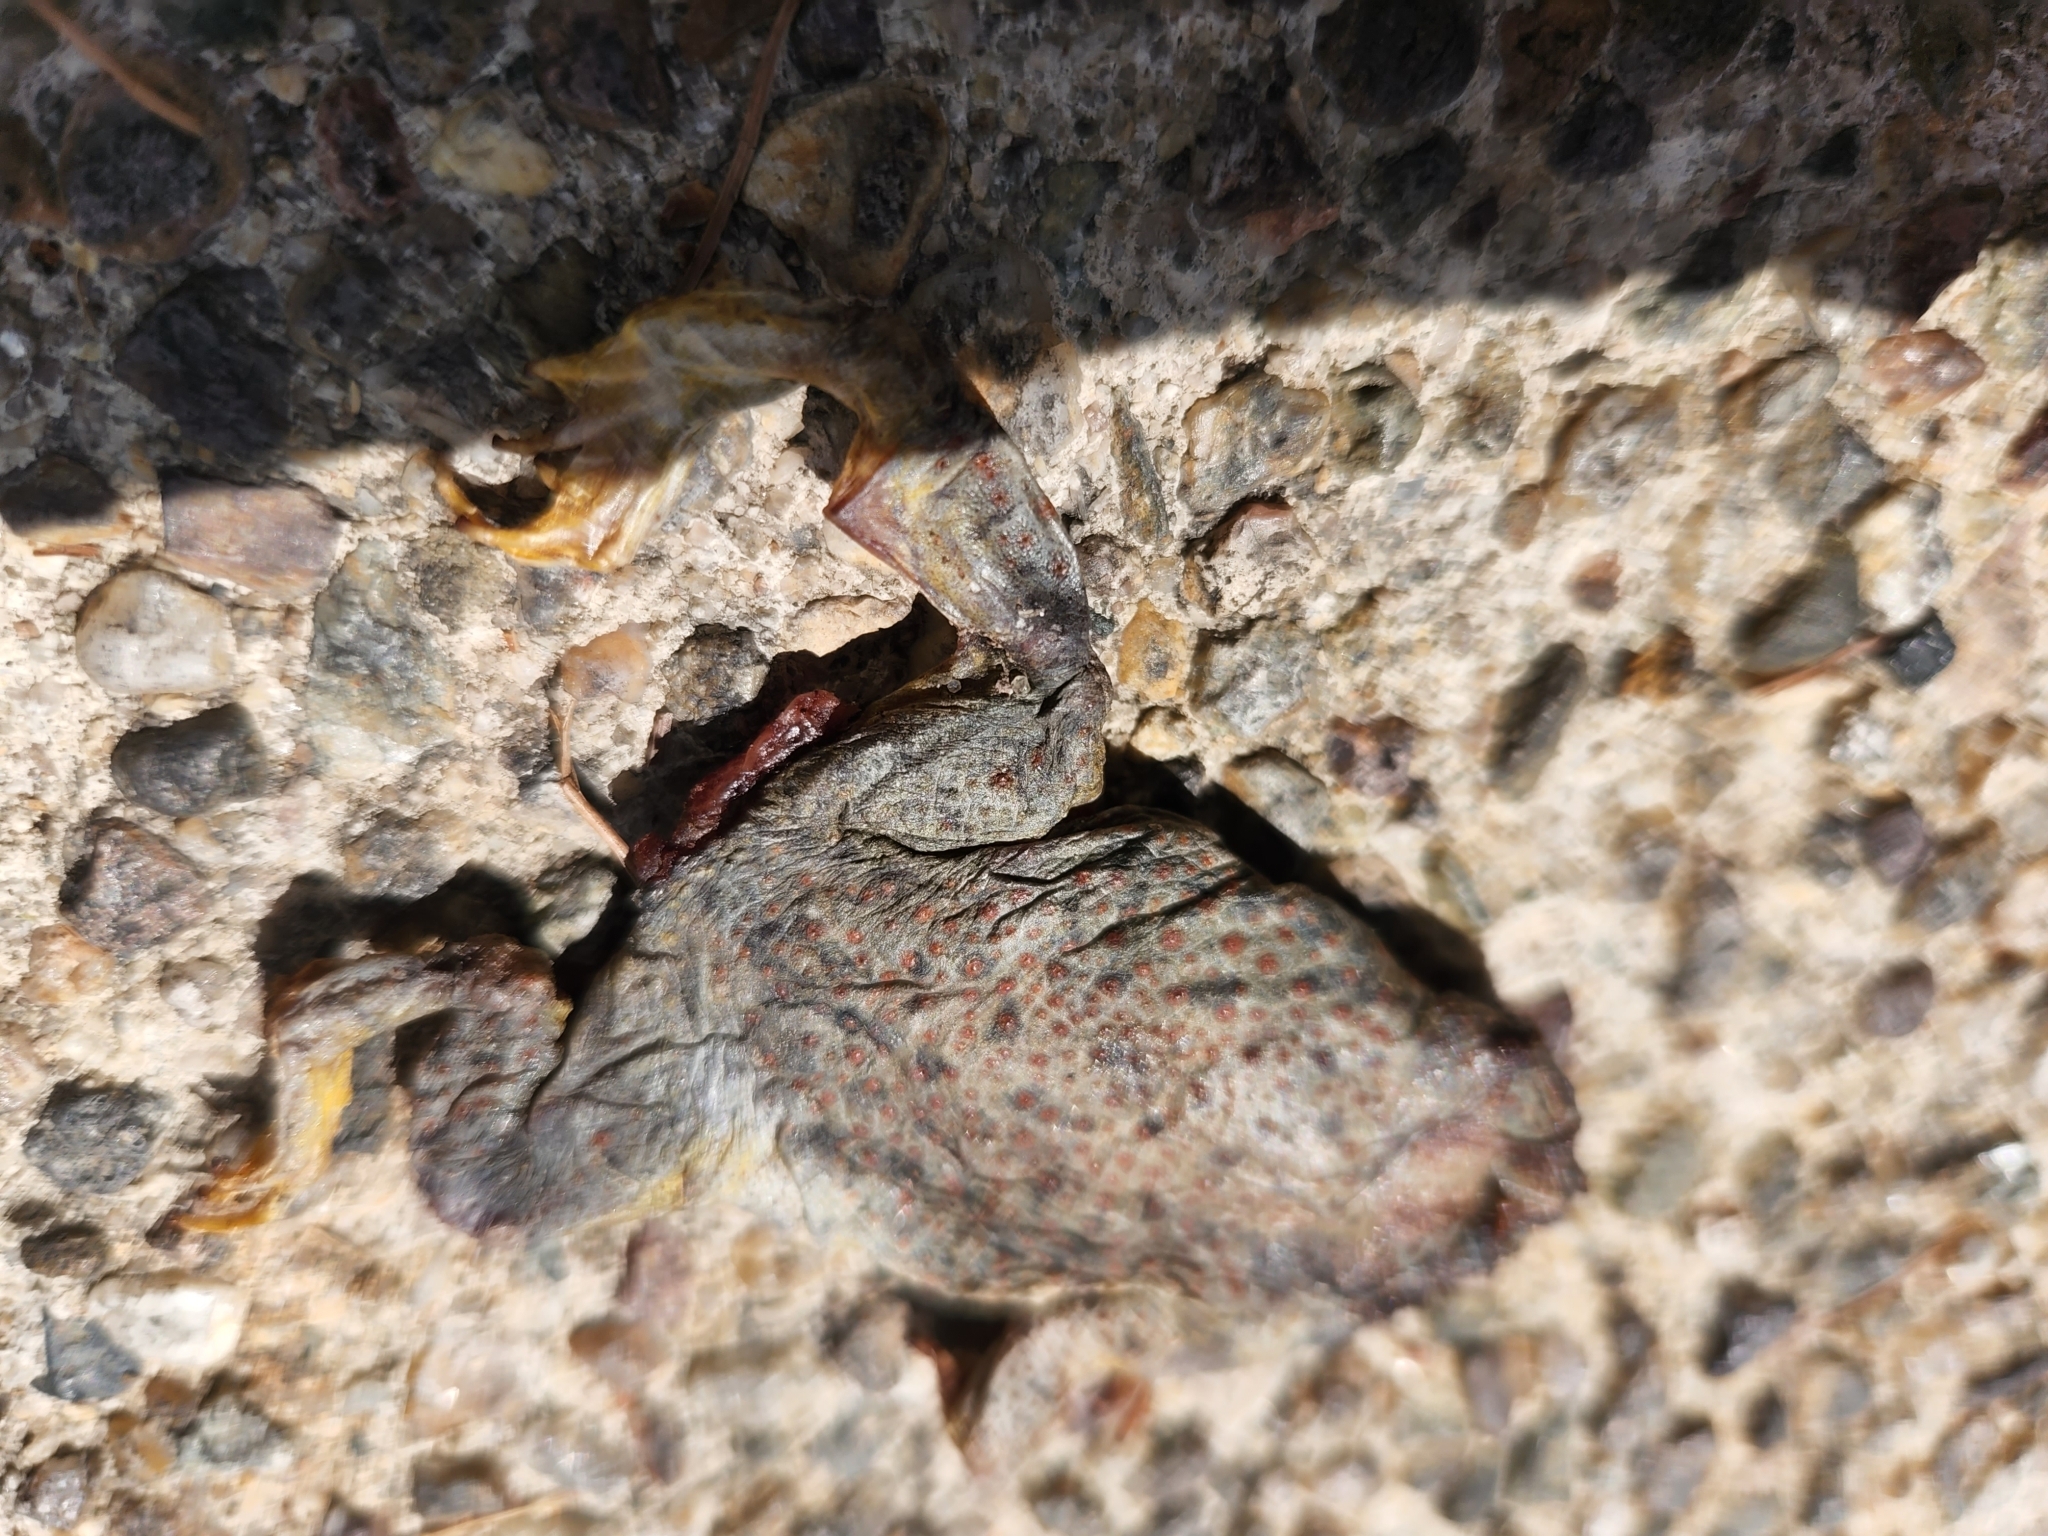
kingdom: Animalia
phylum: Chordata
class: Amphibia
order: Anura
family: Bufonidae
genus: Anaxyrus
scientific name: Anaxyrus punctatus
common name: Red-spotted toad
